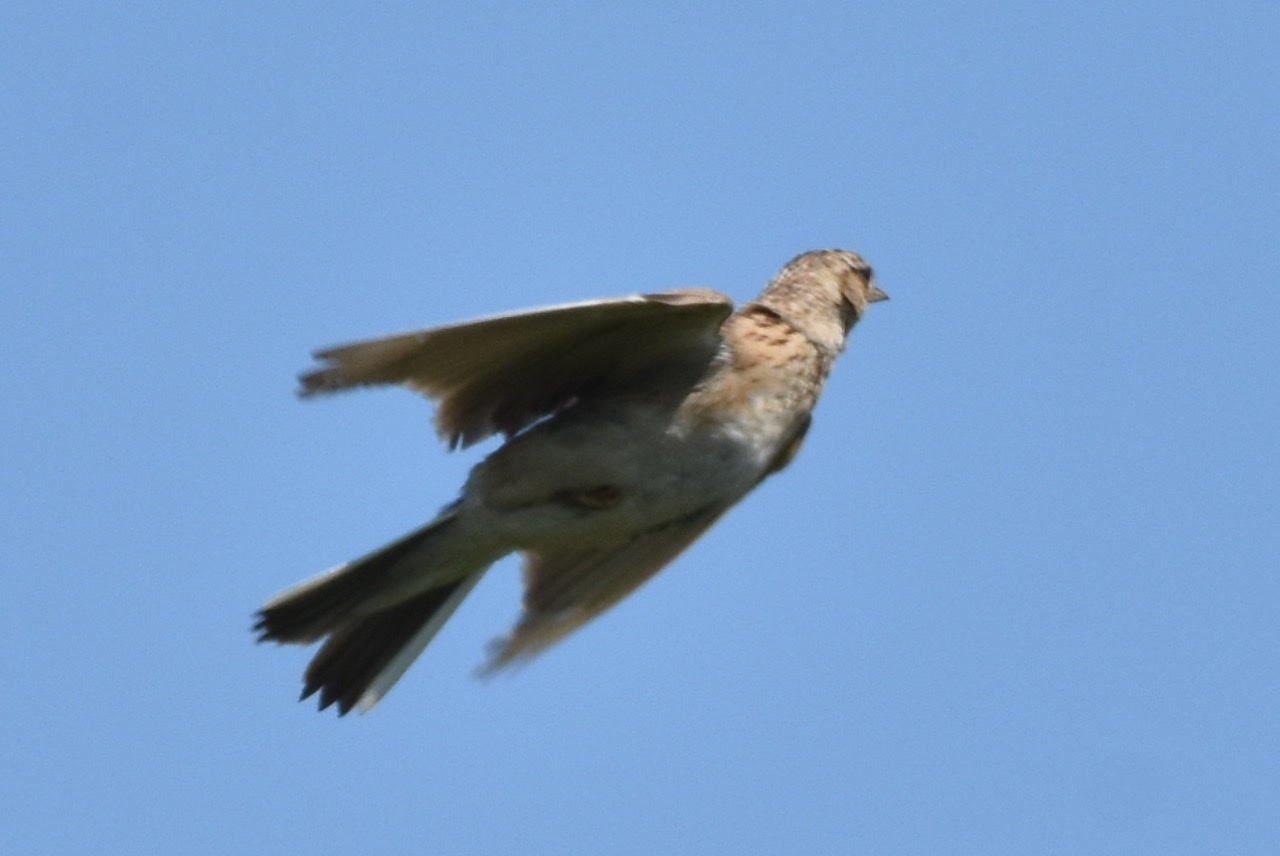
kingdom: Animalia
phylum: Chordata
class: Aves
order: Passeriformes
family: Alaudidae
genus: Alauda
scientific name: Alauda arvensis
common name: Eurasian skylark
